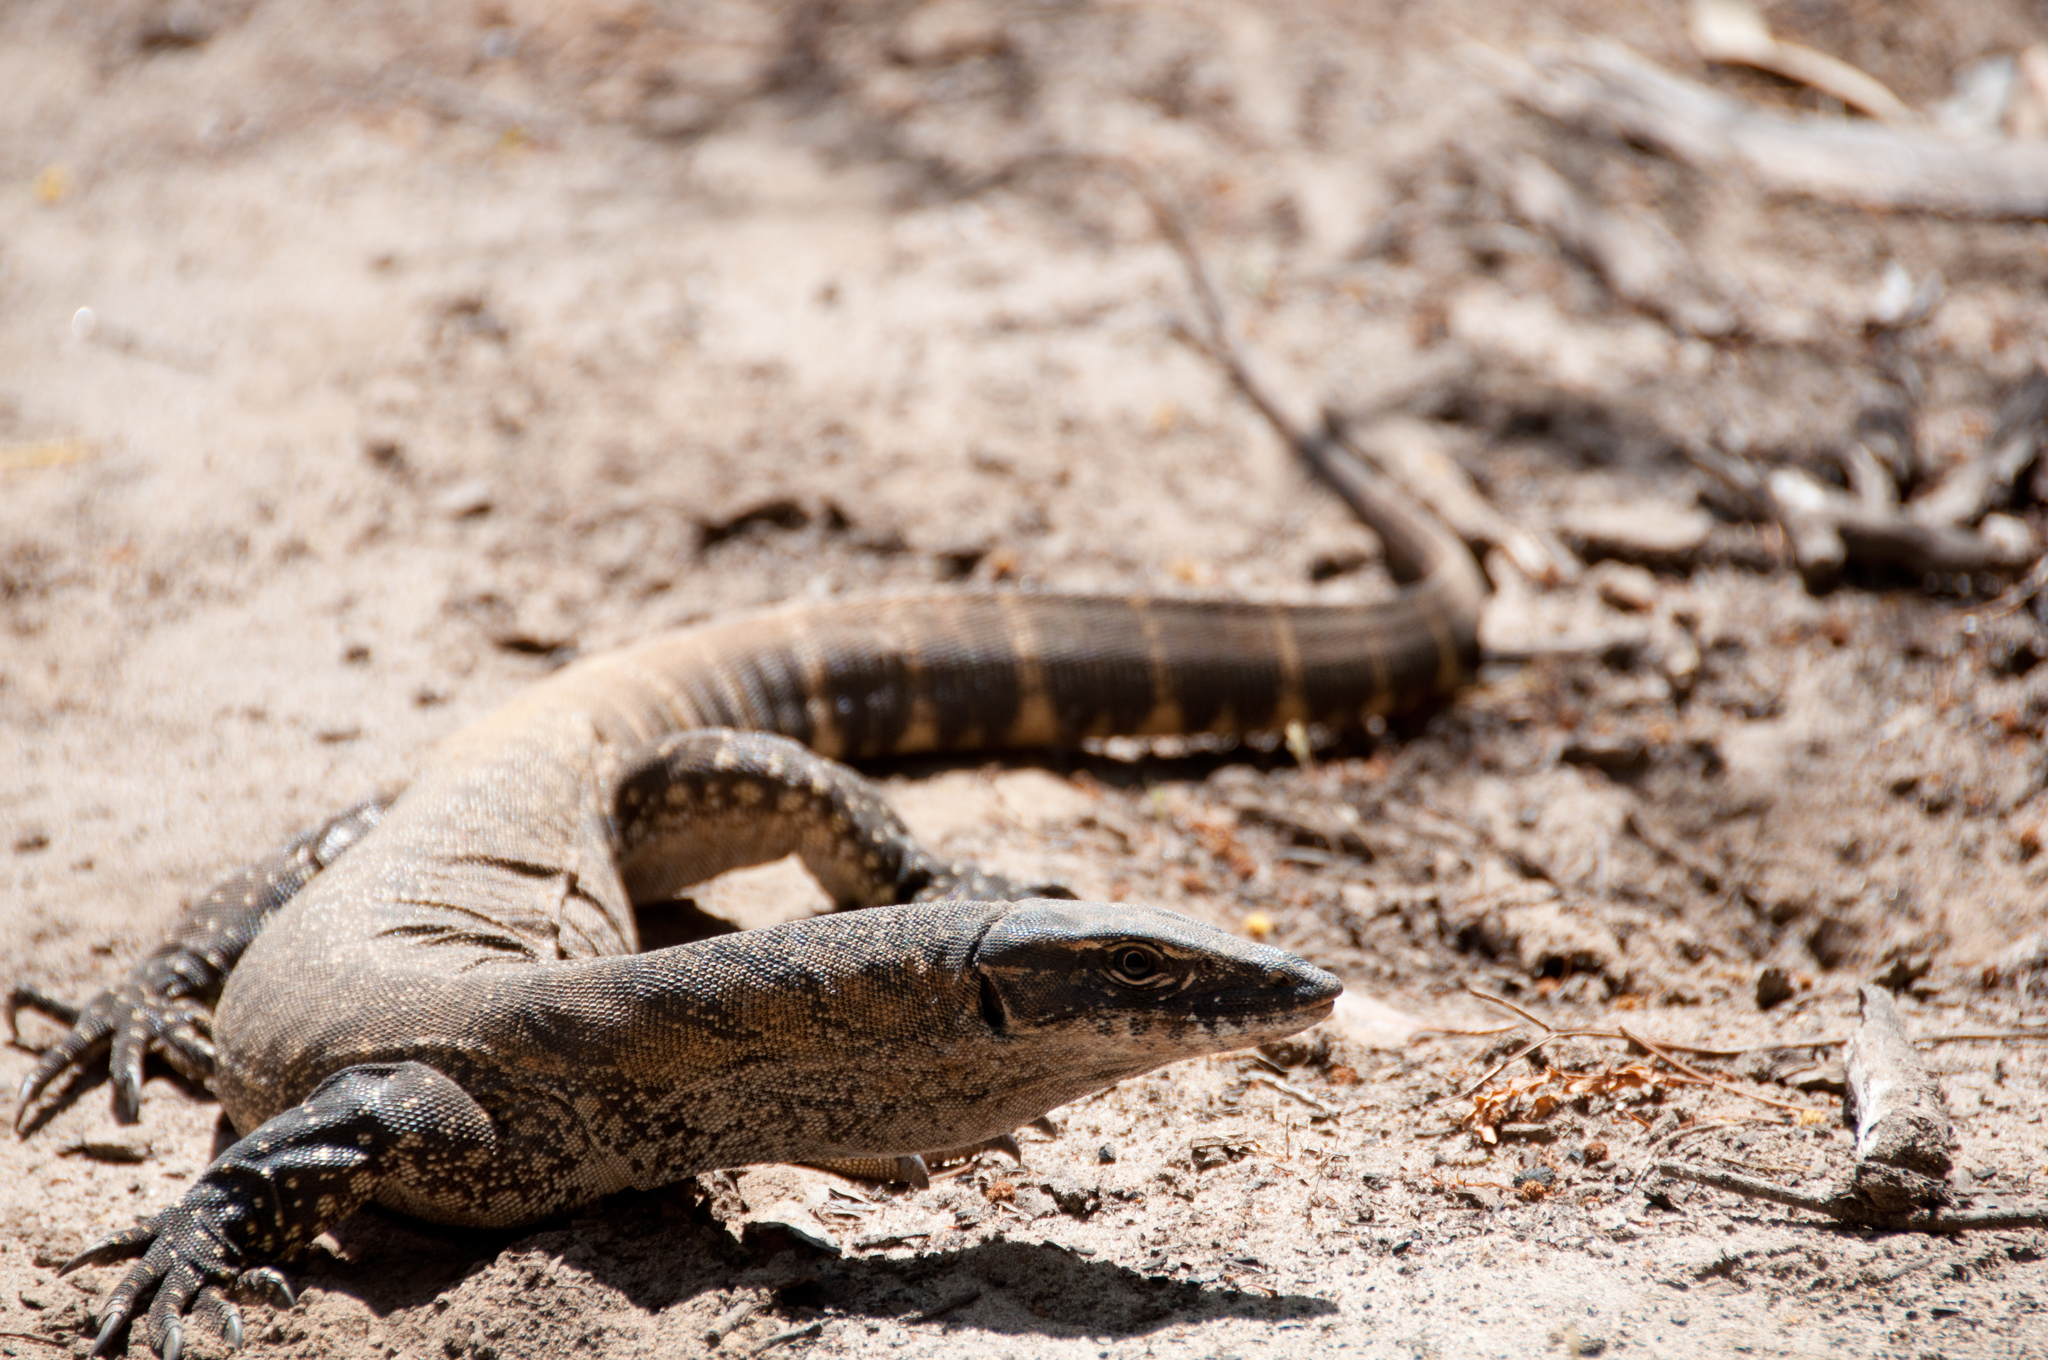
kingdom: Animalia
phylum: Chordata
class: Squamata
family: Varanidae
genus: Varanus
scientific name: Varanus rosenbergi
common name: Heath monitor
